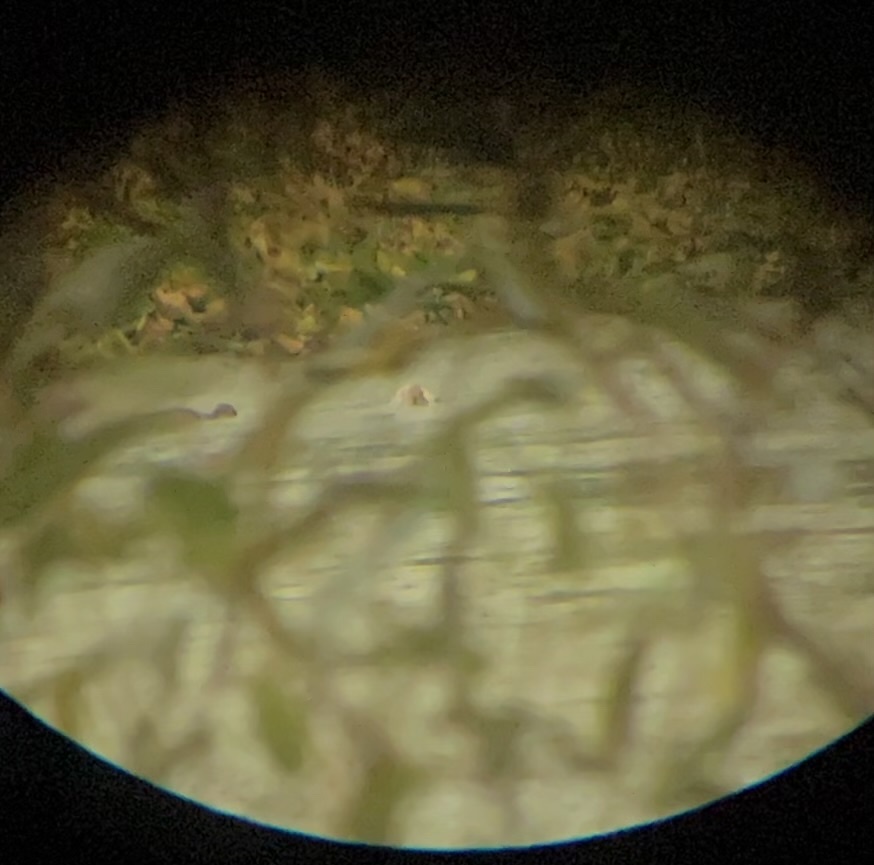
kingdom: Animalia
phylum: Chordata
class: Aves
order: Anseriformes
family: Anatidae
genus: Anas
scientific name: Anas platyrhynchos
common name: Mallard
